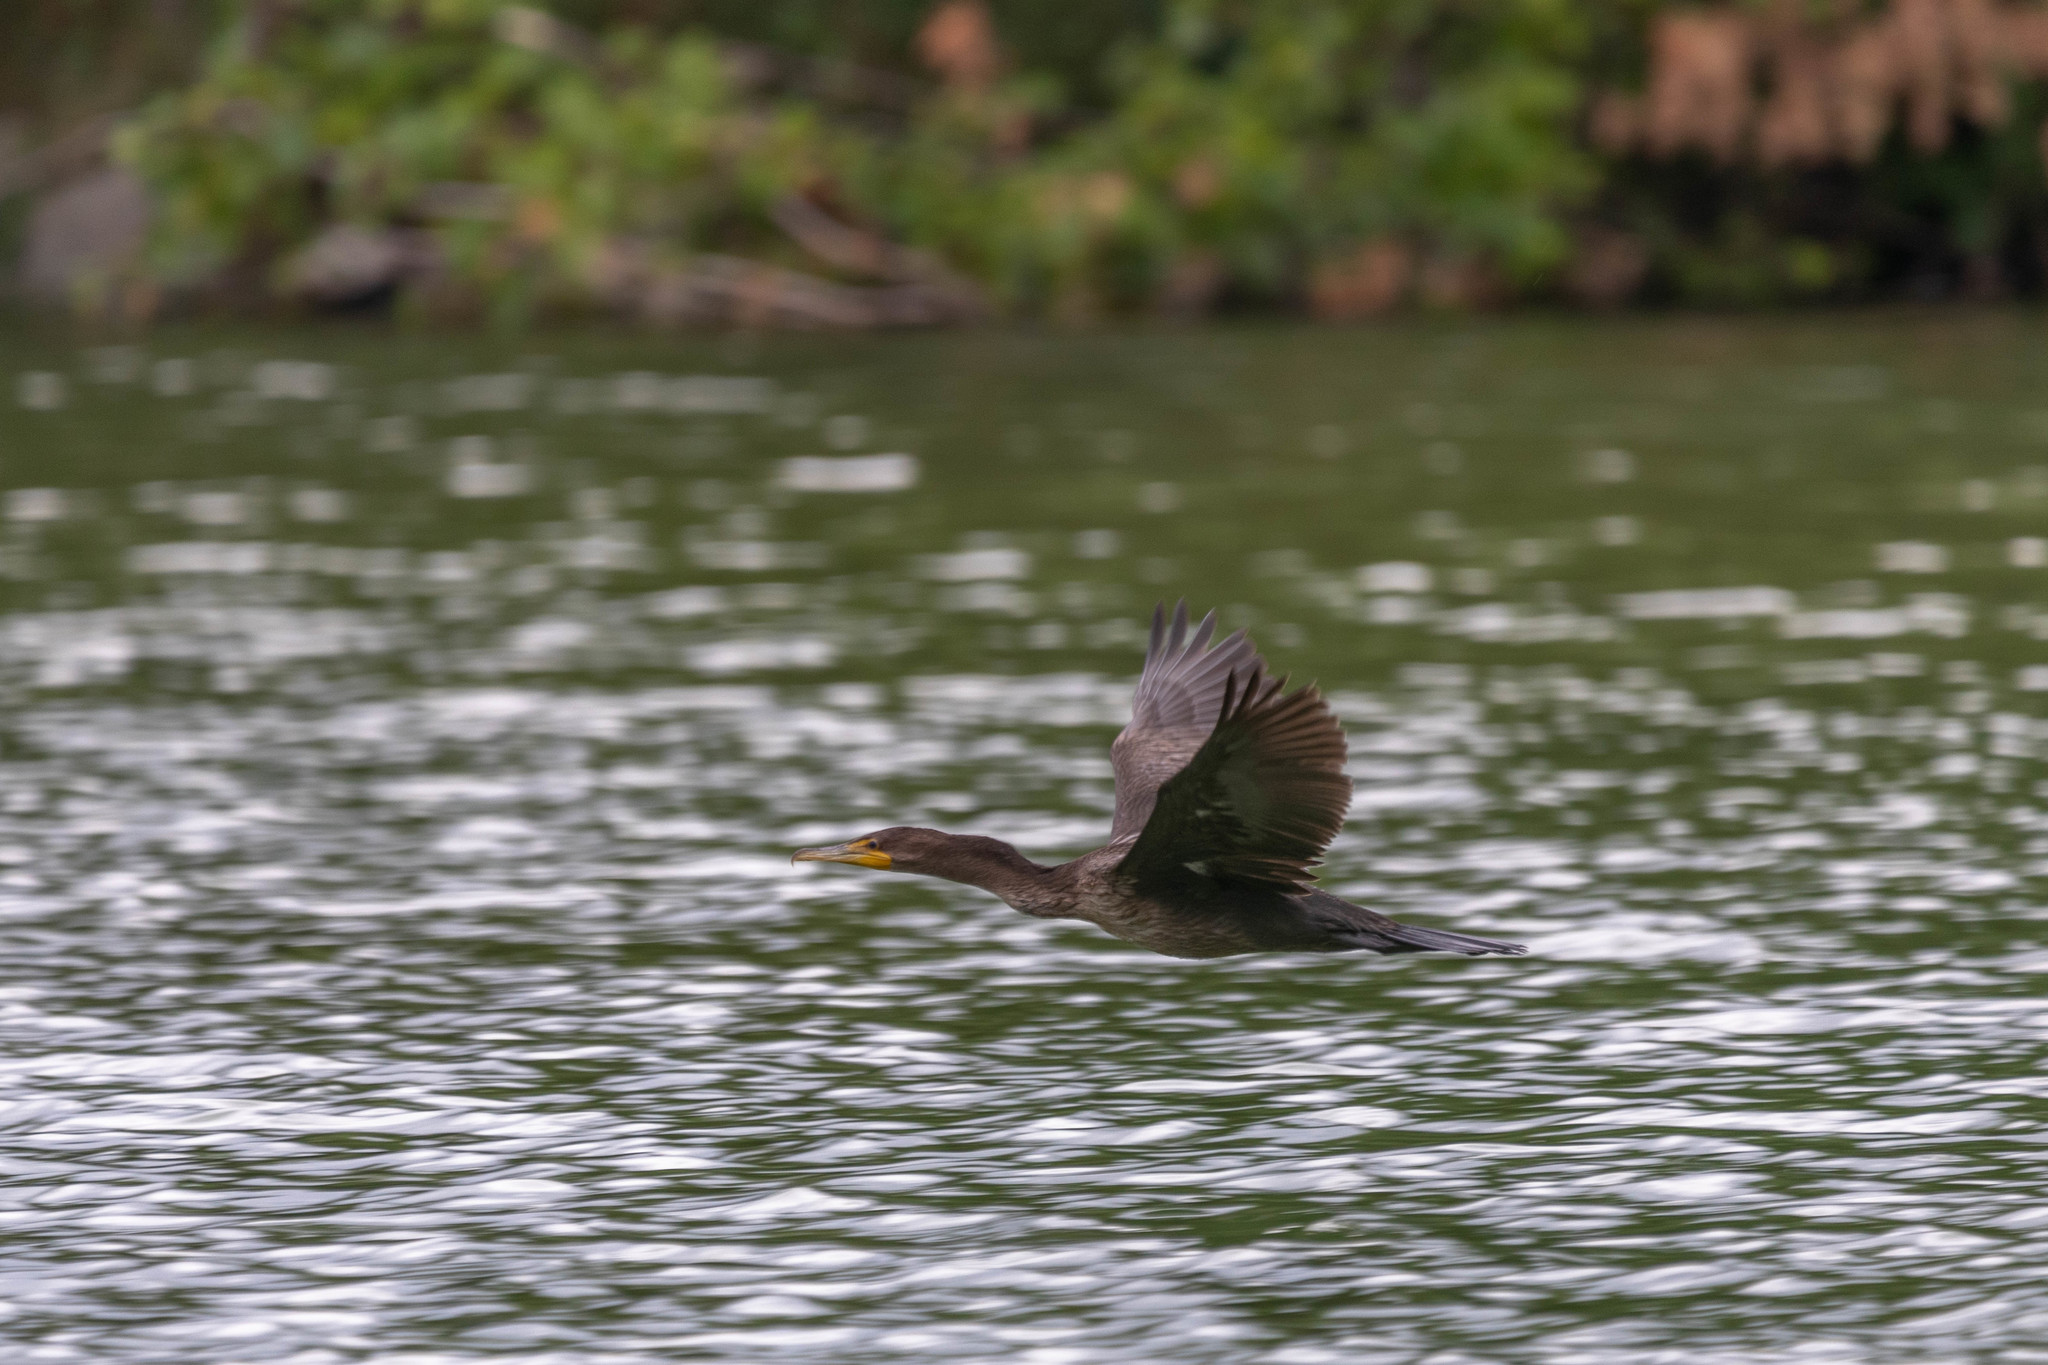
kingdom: Animalia
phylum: Chordata
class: Aves
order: Suliformes
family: Phalacrocoracidae
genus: Phalacrocorax
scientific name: Phalacrocorax auritus
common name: Double-crested cormorant
